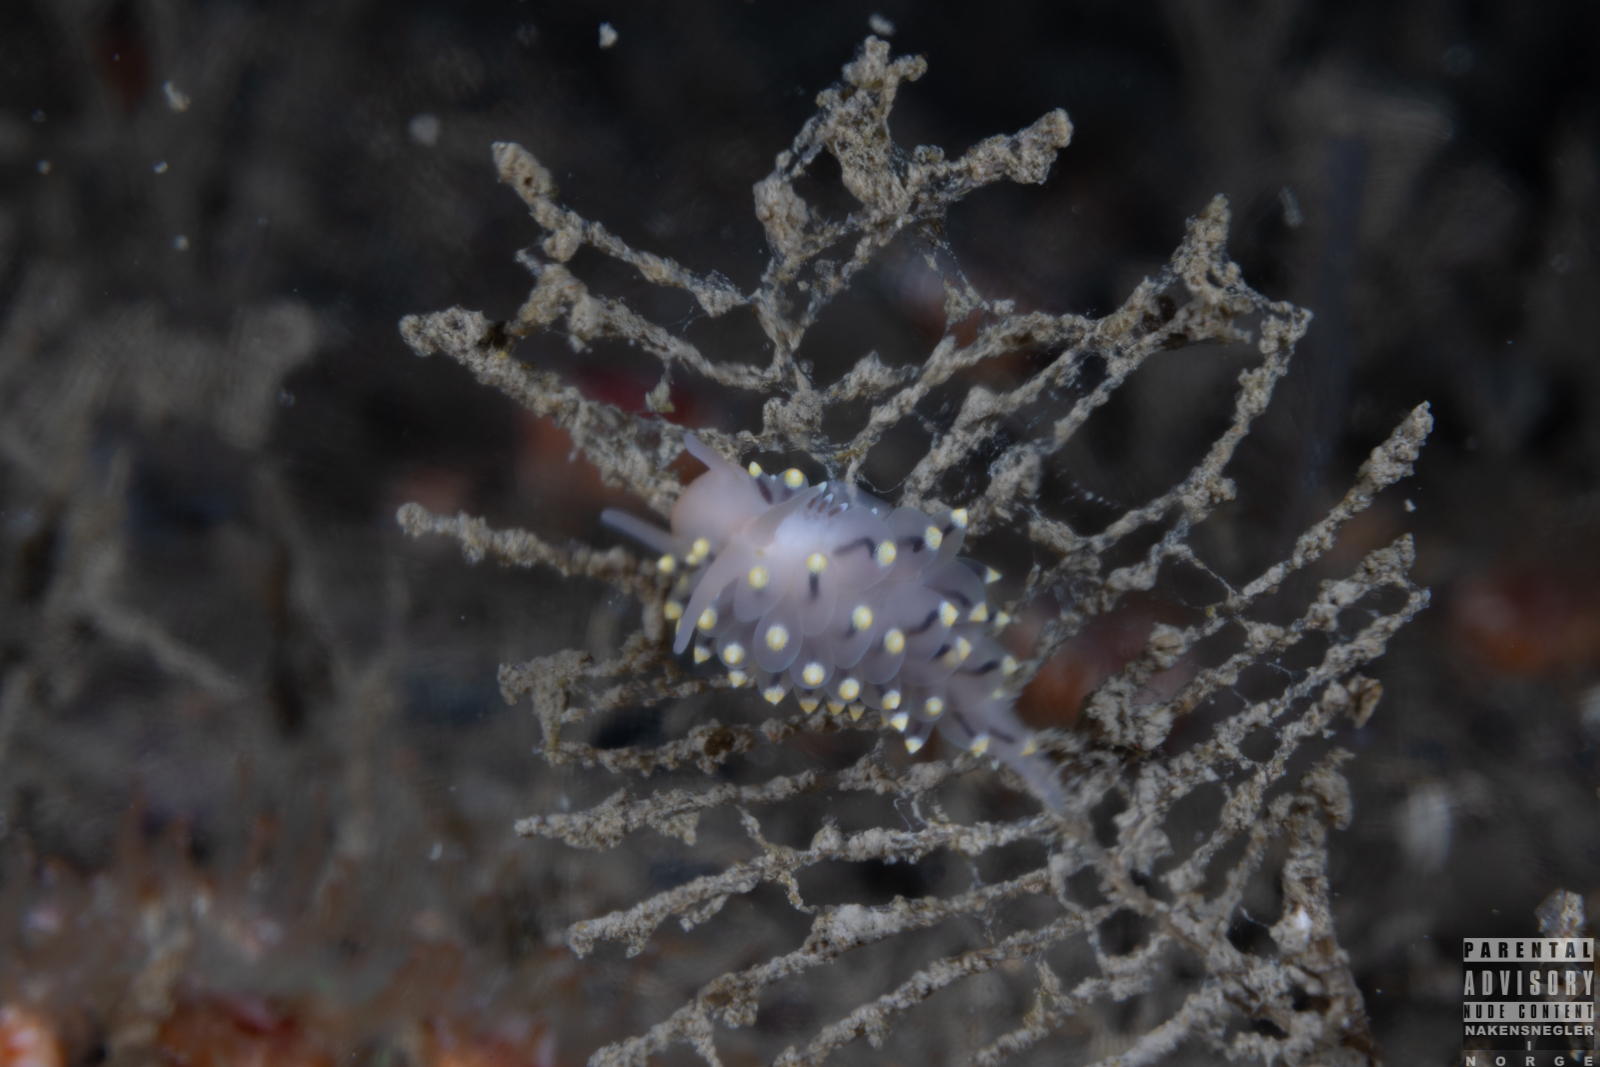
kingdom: Animalia
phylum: Mollusca
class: Gastropoda
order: Nudibranchia
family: Eubranchidae
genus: Eubranchus
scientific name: Eubranchus tricolor
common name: Painted balloon aeolis
